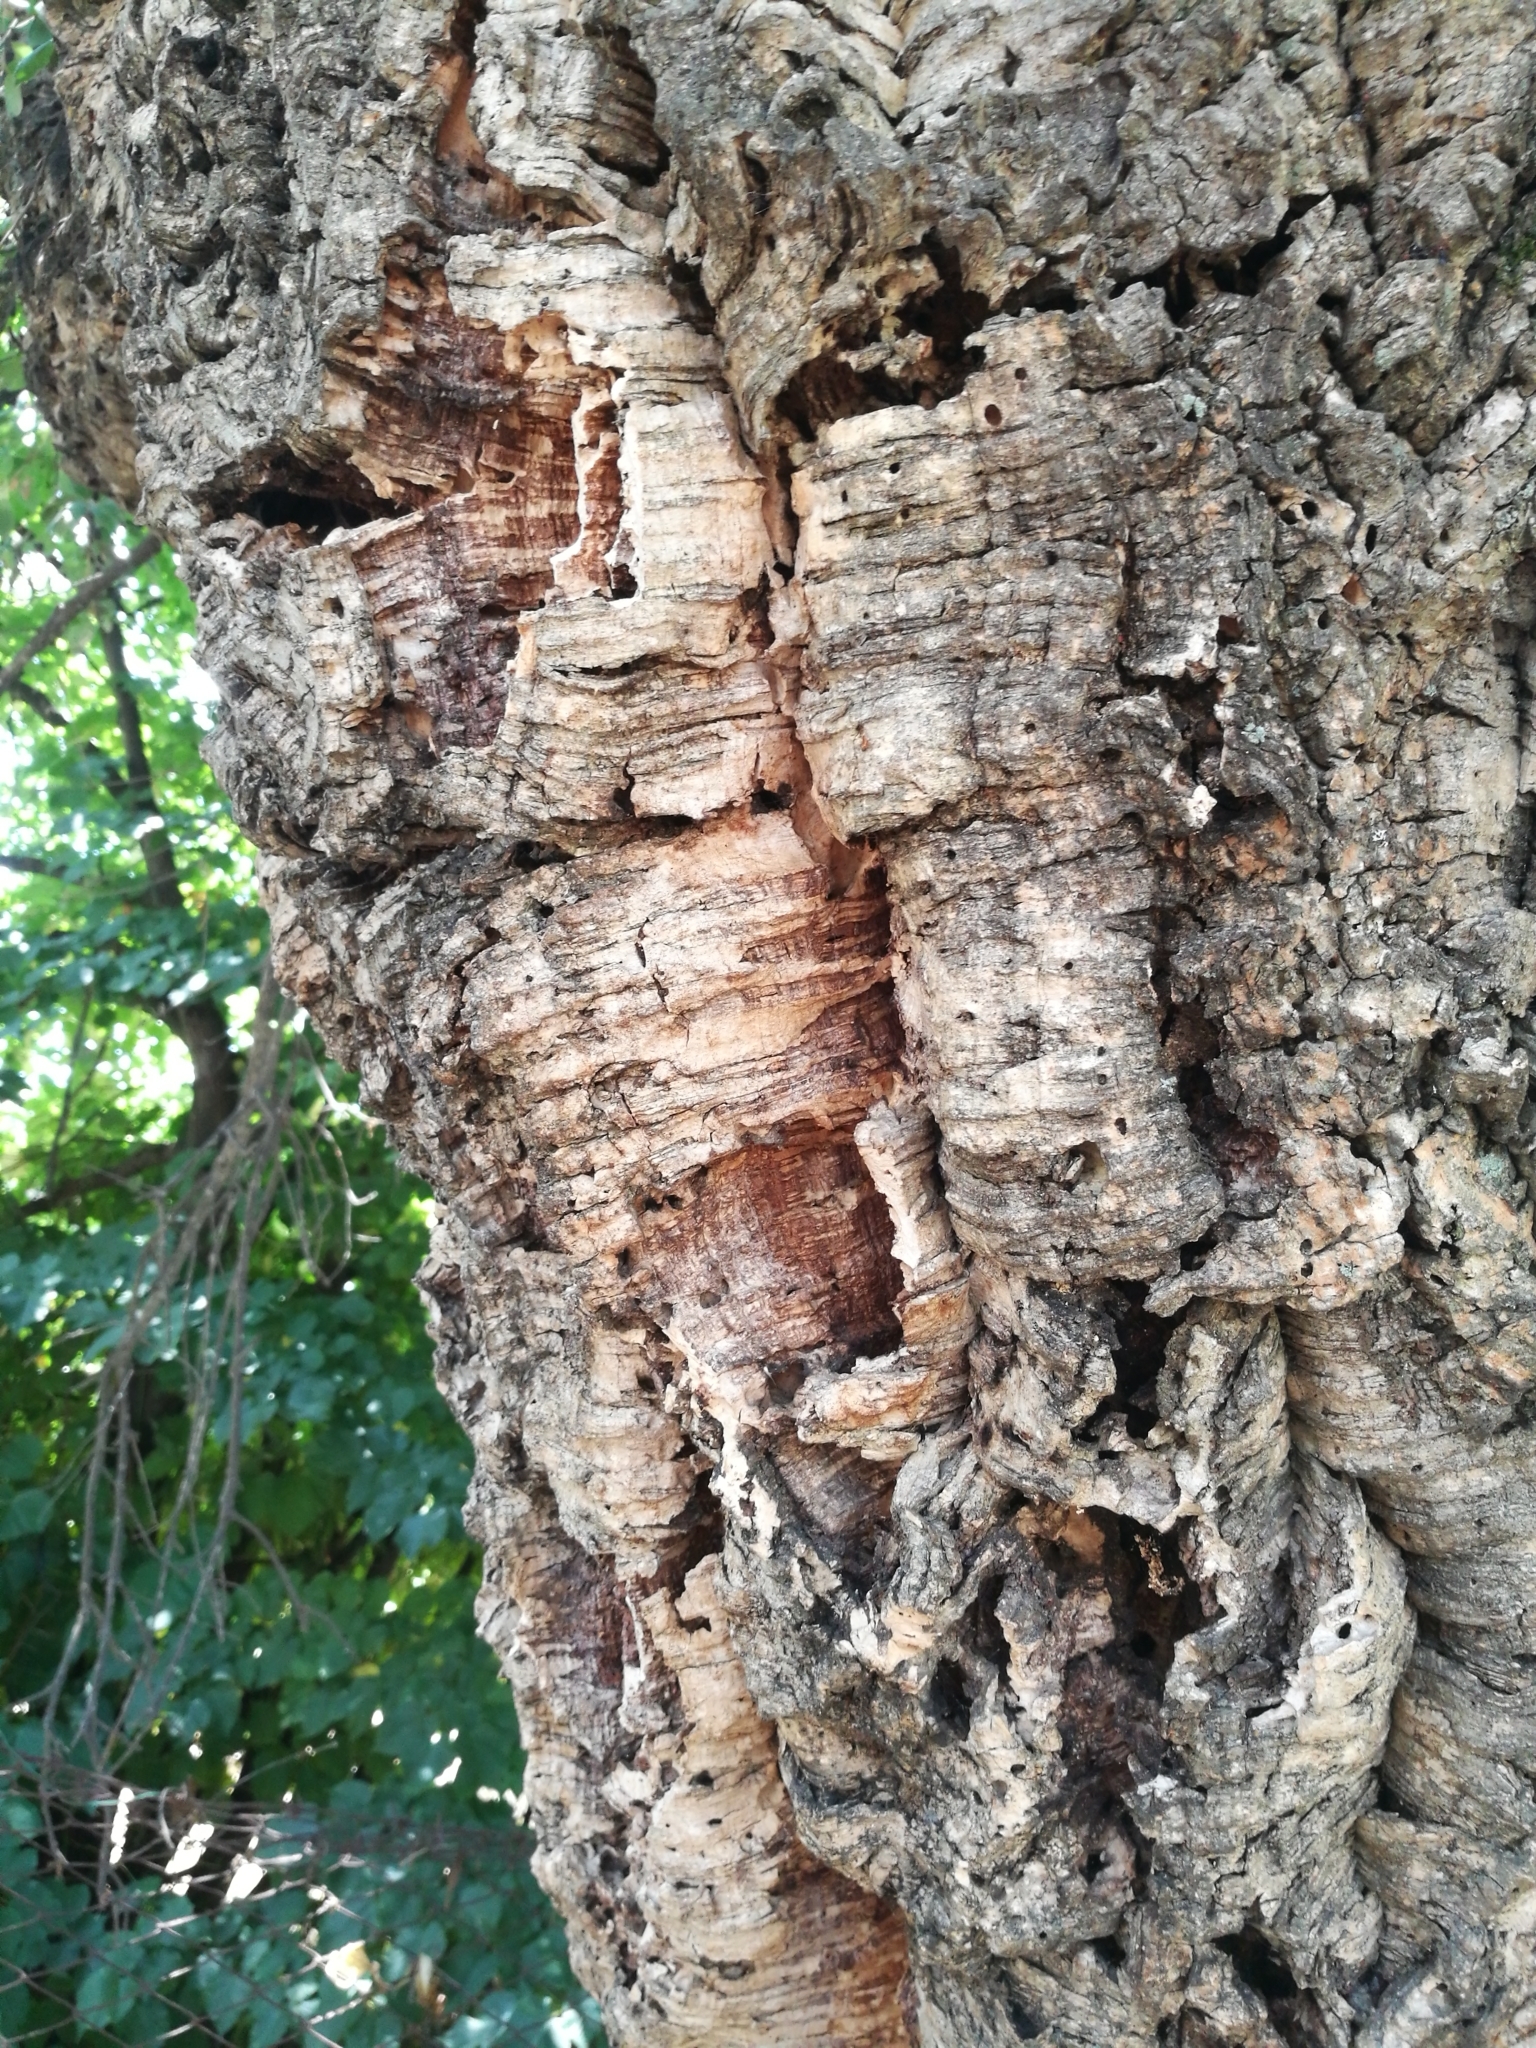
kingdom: Plantae
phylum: Tracheophyta
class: Magnoliopsida
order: Fagales
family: Fagaceae
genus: Quercus
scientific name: Quercus suber
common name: Cork oak
